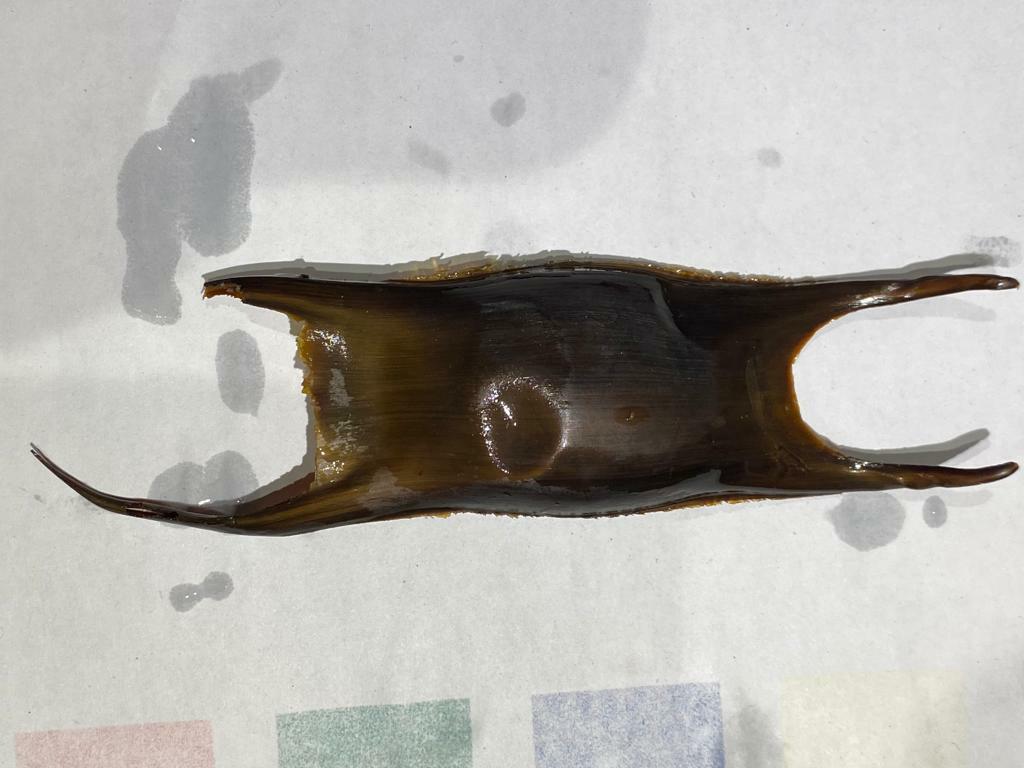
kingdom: Animalia
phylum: Chordata
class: Elasmobranchii
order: Rajiformes
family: Rajidae
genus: Raja
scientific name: Raja montagui
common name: Spotted ray
